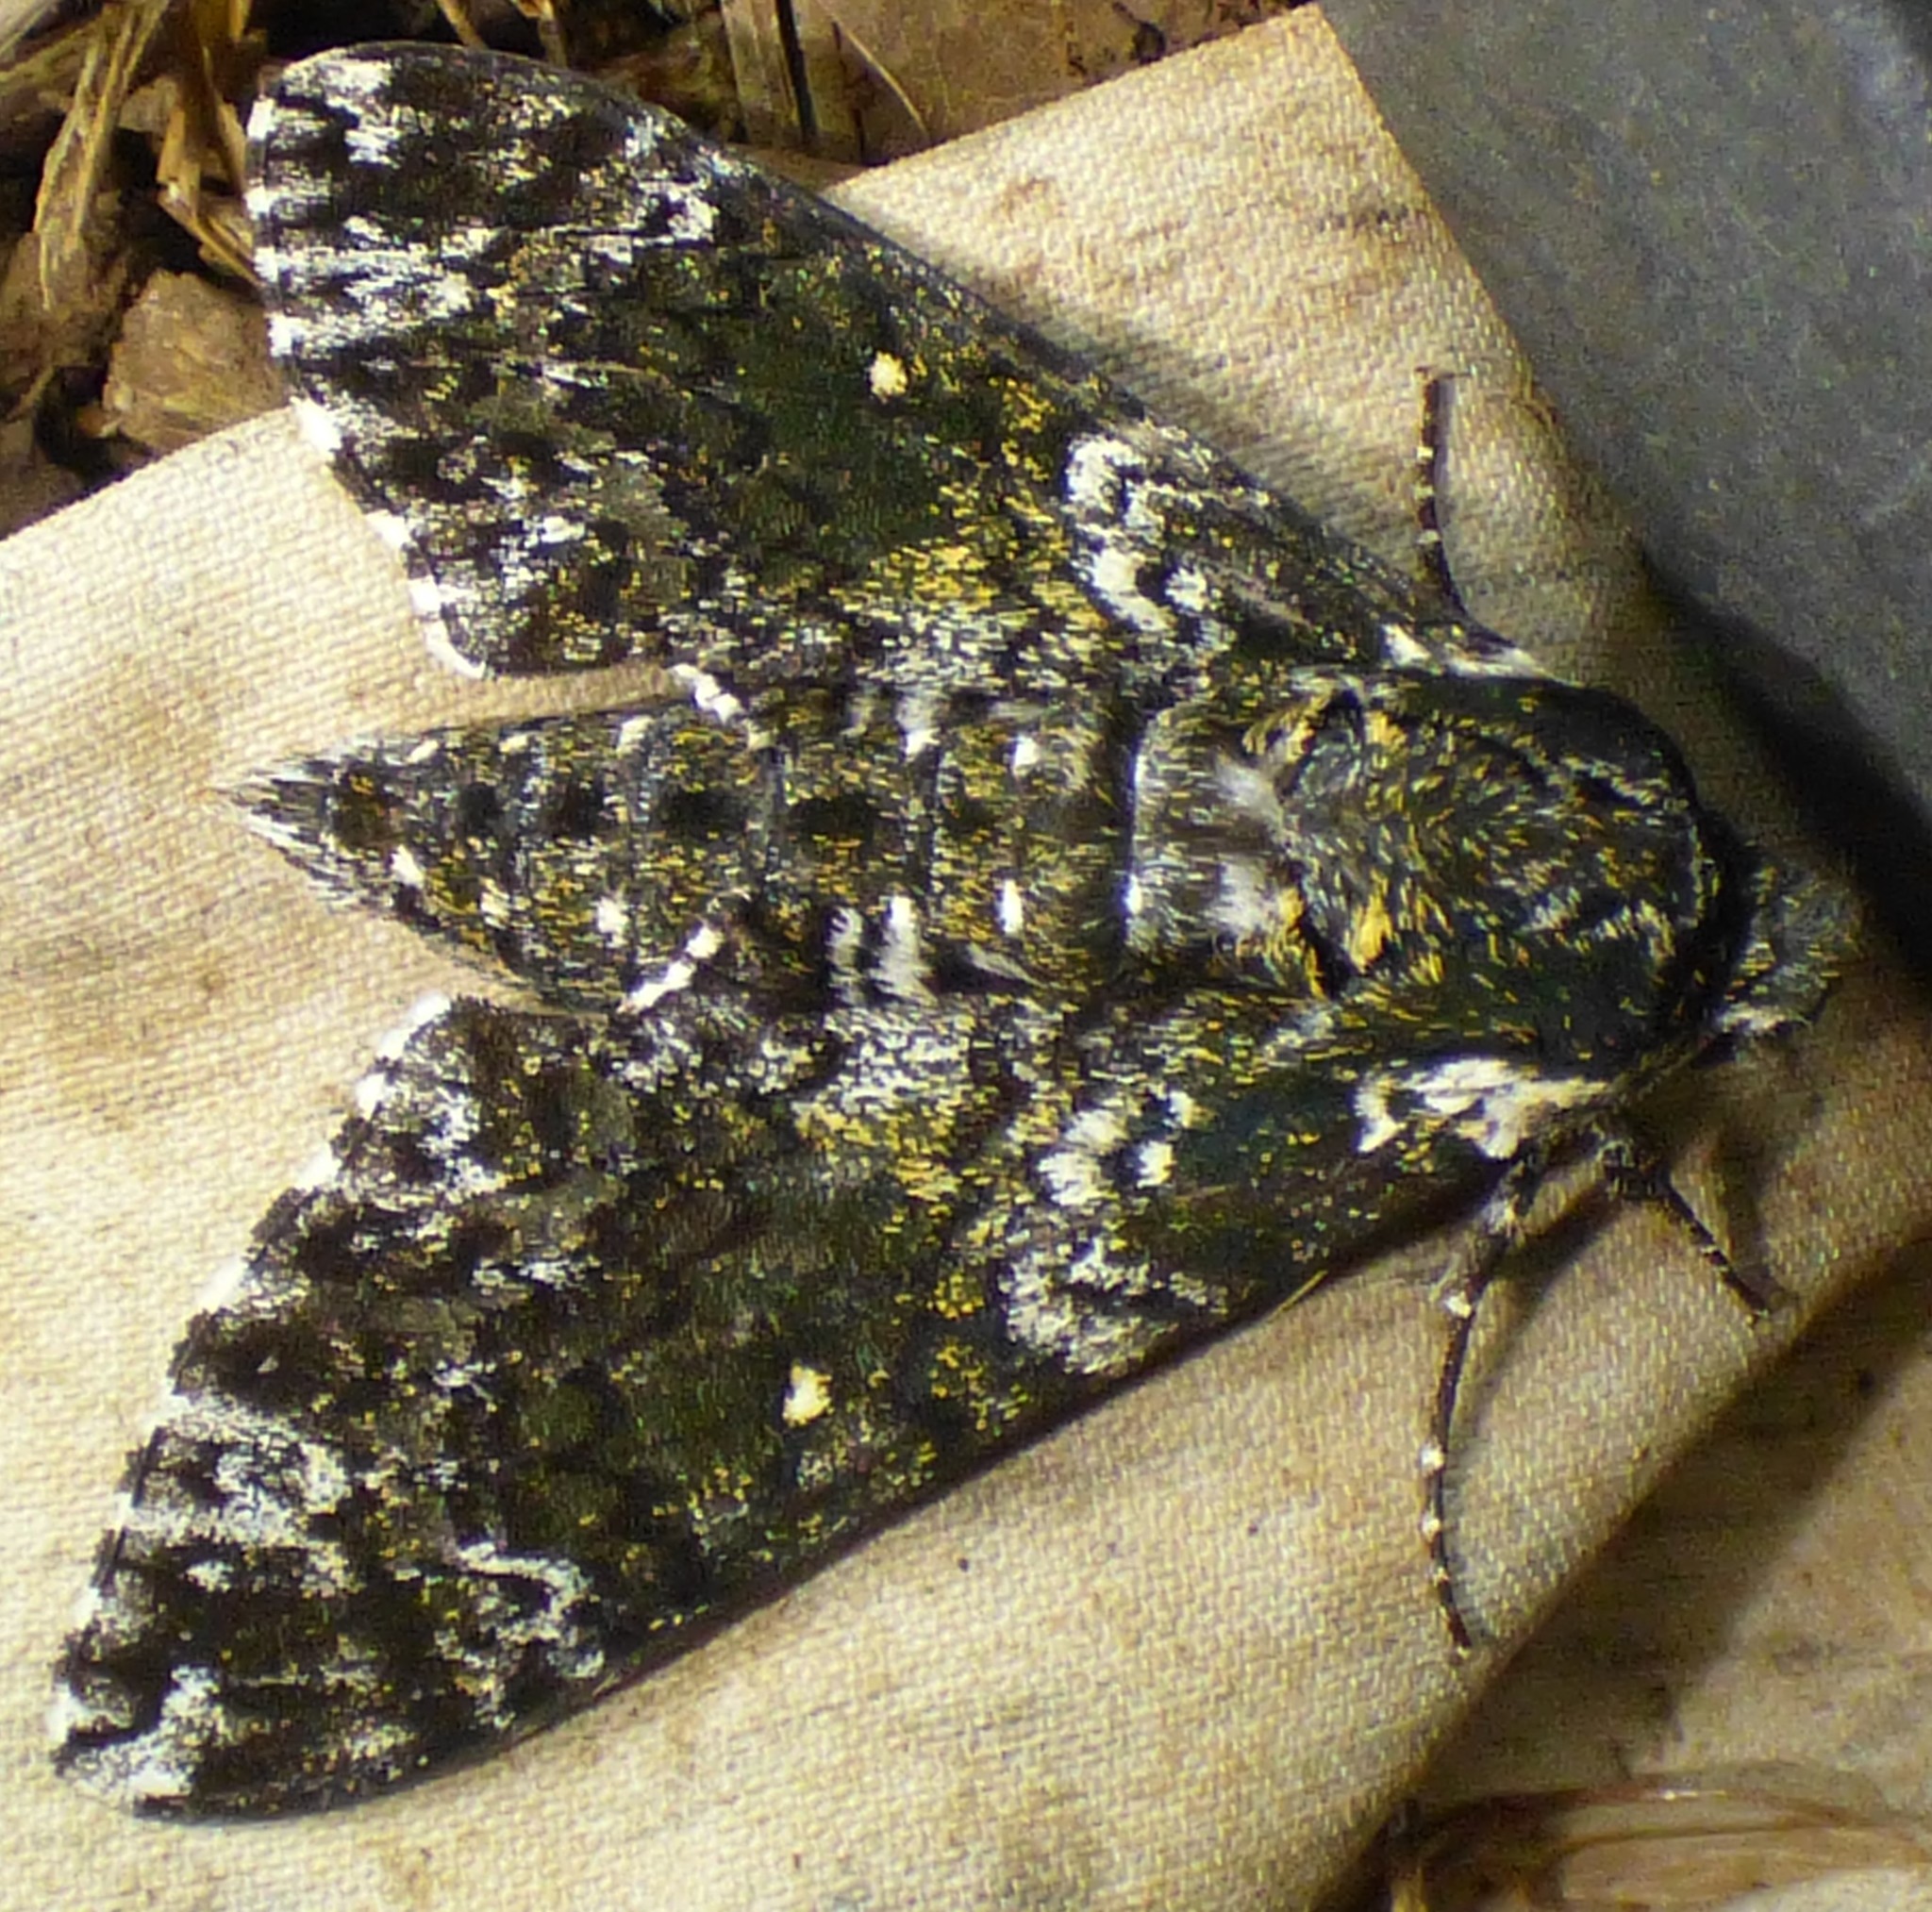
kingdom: Animalia
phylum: Arthropoda
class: Insecta
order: Lepidoptera
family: Sphingidae
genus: Dolba
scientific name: Dolba hyloeus
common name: Pawpaw sphinx
